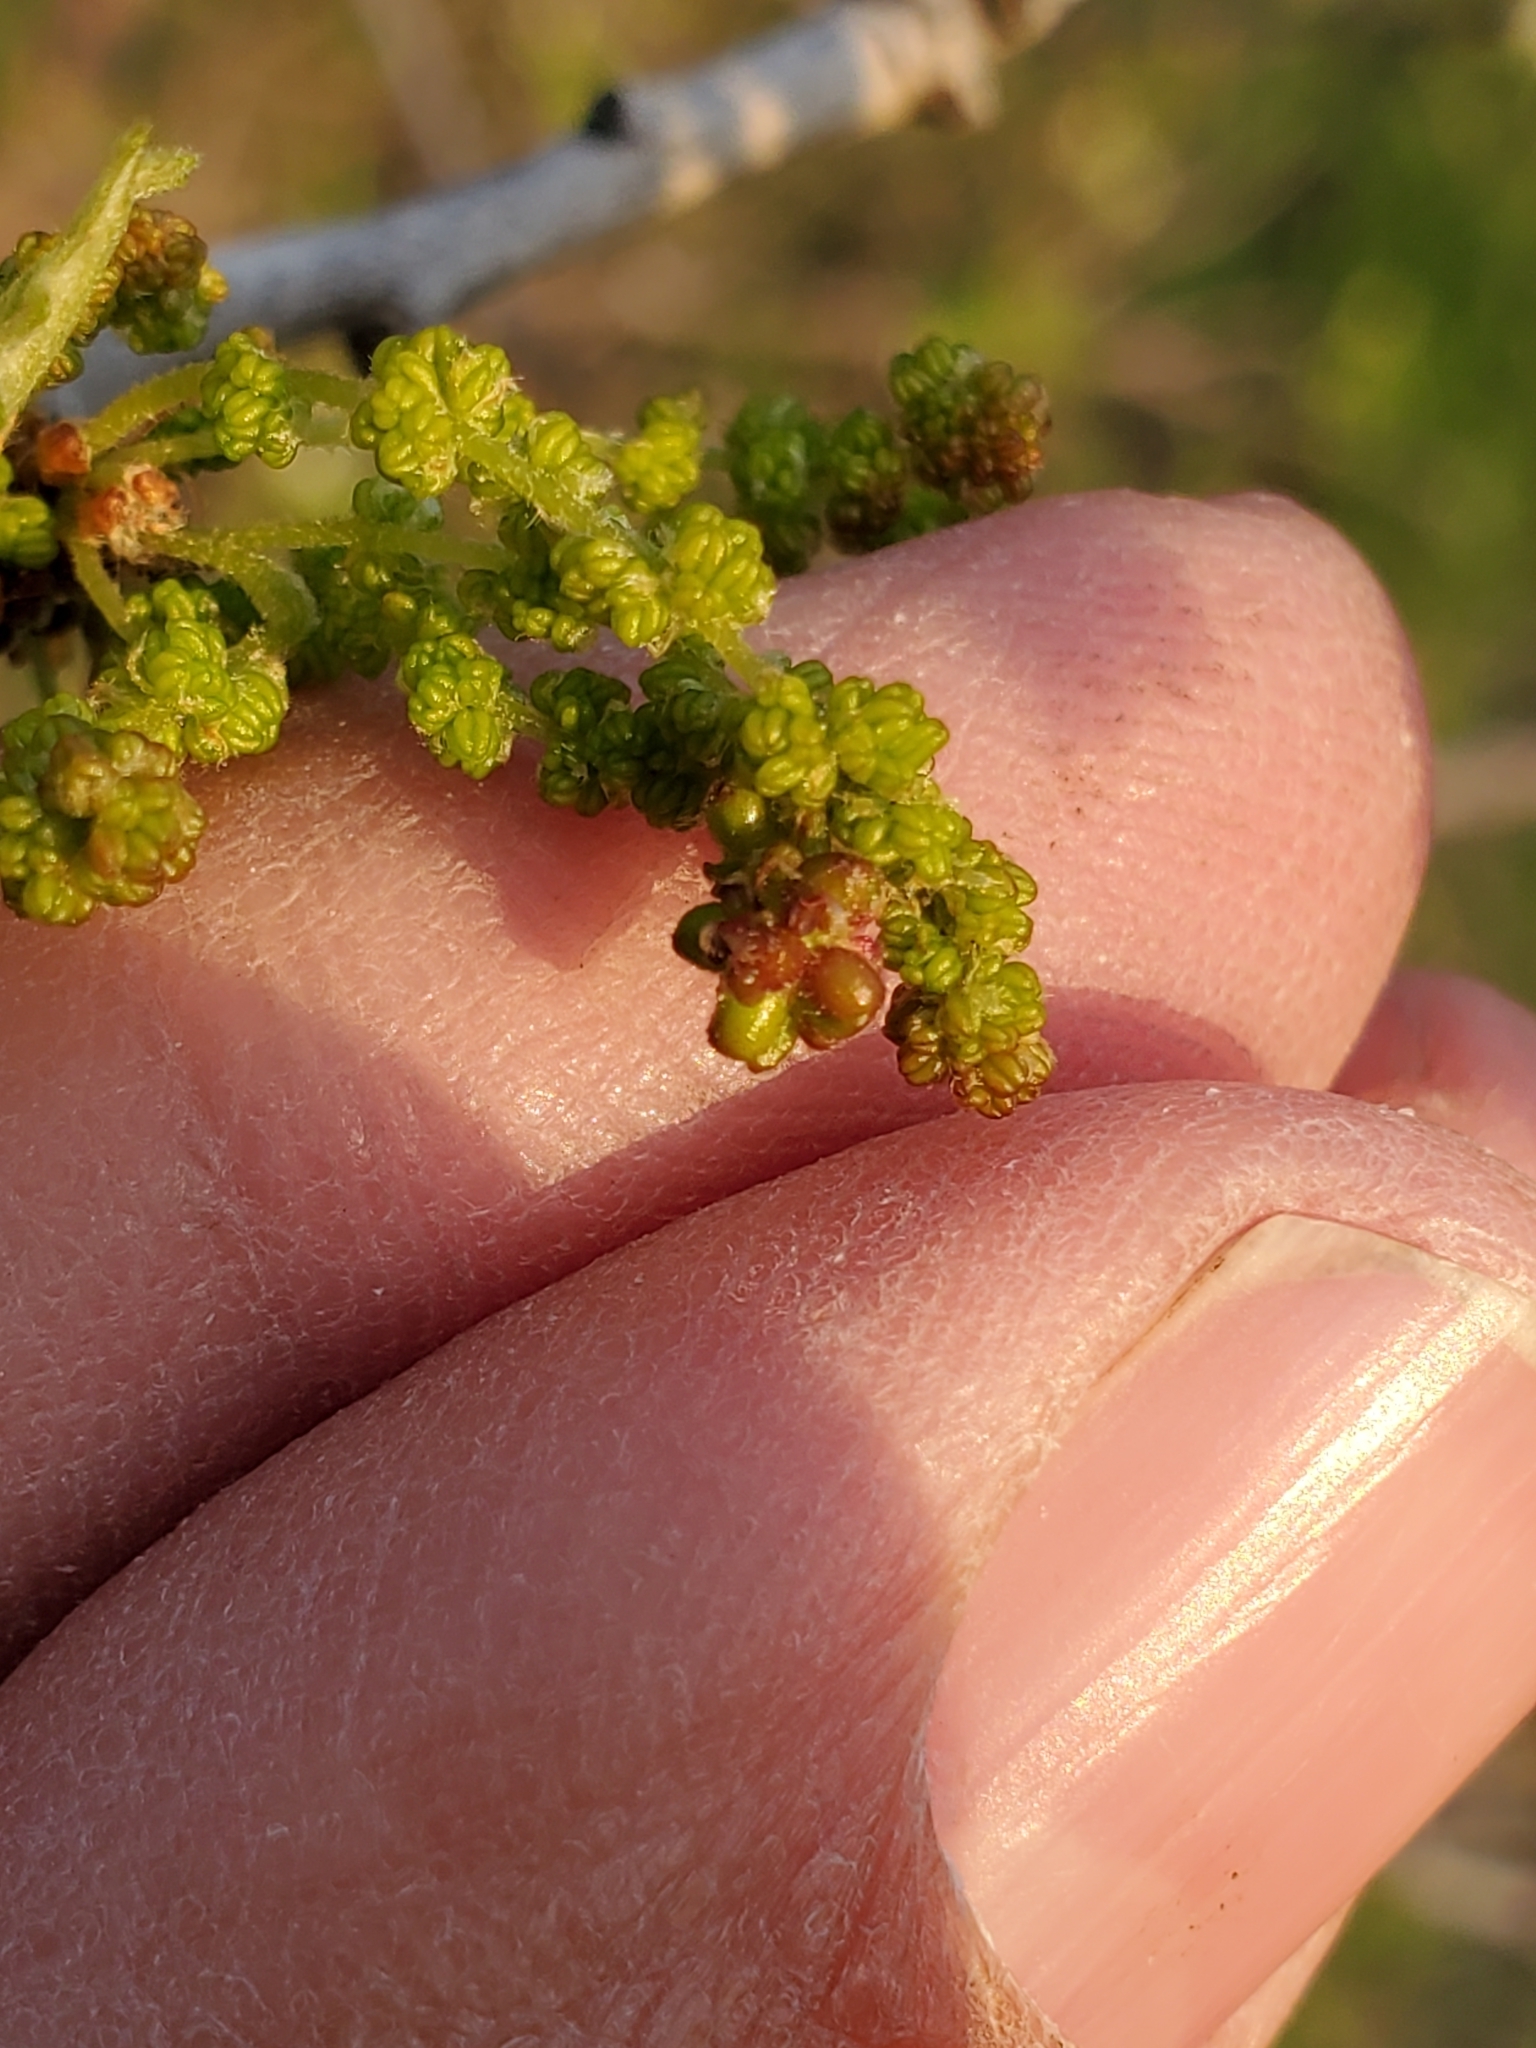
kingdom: Animalia
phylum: Arthropoda
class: Insecta
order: Hymenoptera
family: Cynipidae
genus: Neuroterus
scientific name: Neuroterus pallidus
